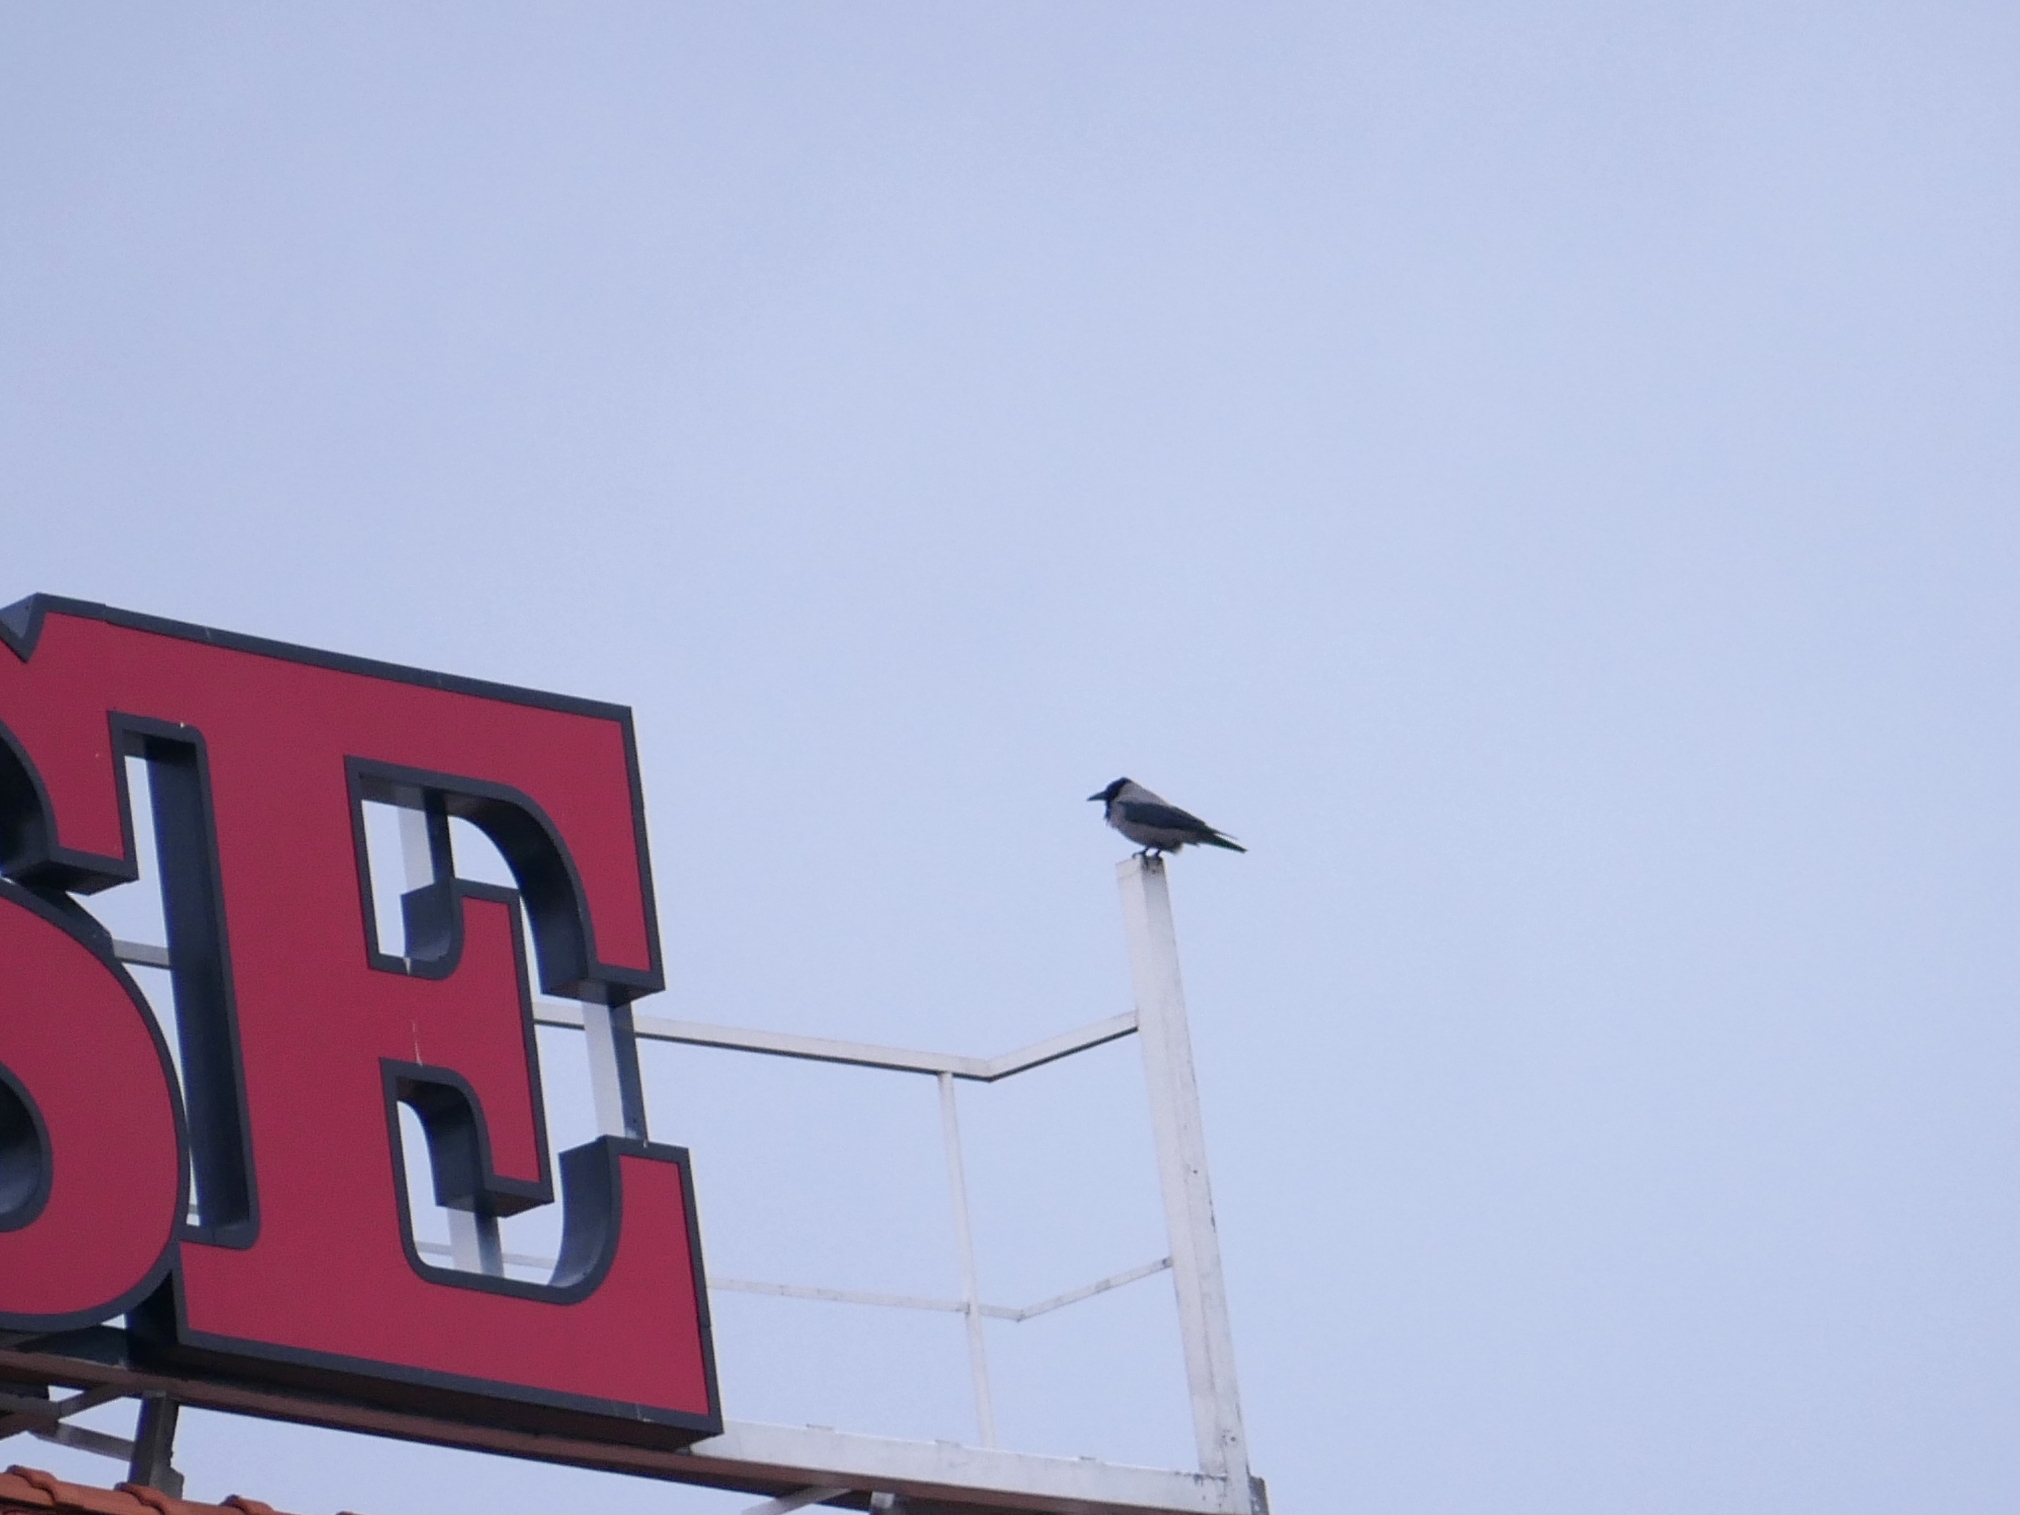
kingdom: Animalia
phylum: Chordata
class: Aves
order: Passeriformes
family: Corvidae
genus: Corvus
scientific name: Corvus cornix
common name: Hooded crow
